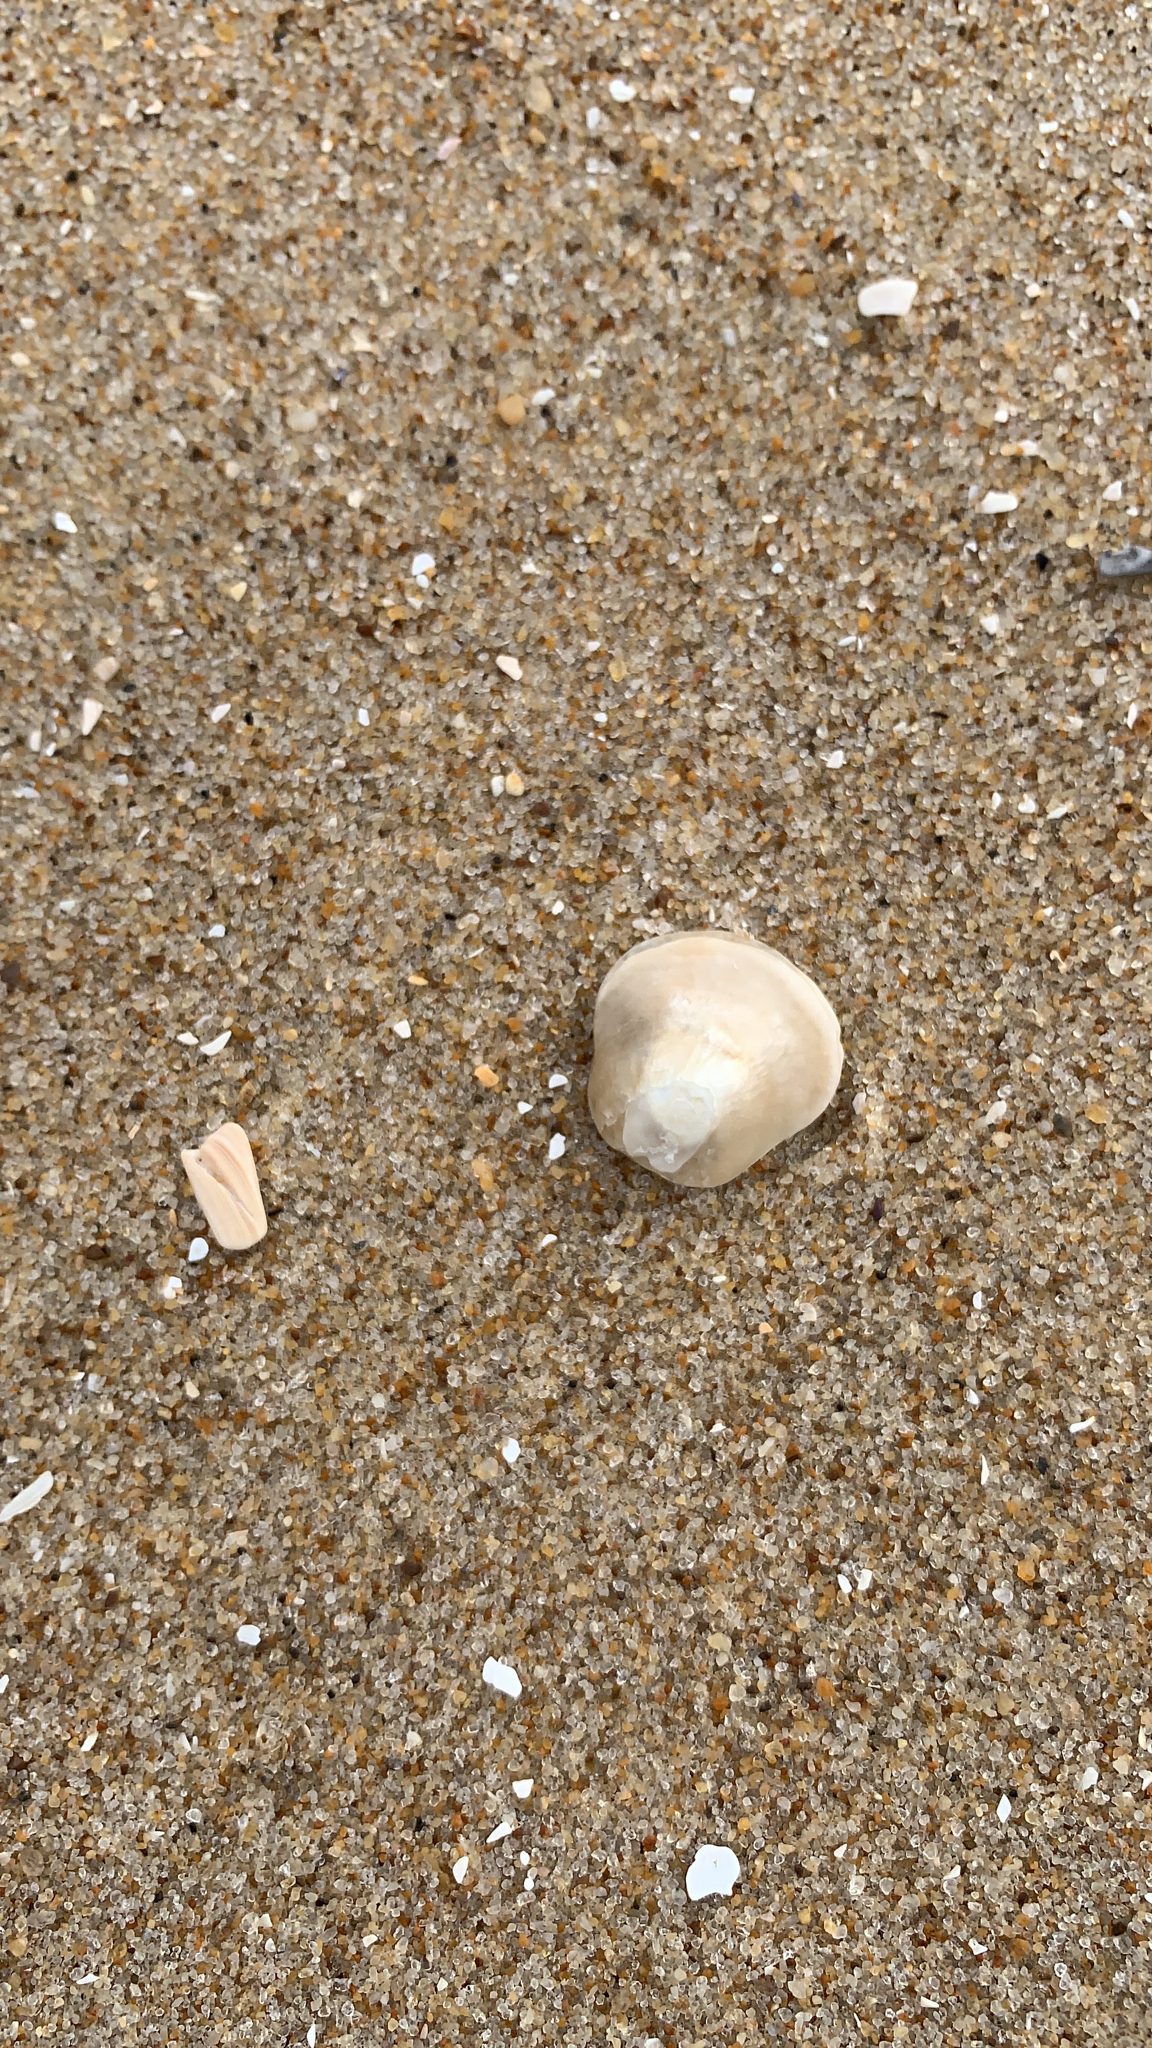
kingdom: Animalia
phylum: Mollusca
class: Bivalvia
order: Pectinida
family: Anomiidae
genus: Anomia
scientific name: Anomia simplex
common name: Common jingle shell
